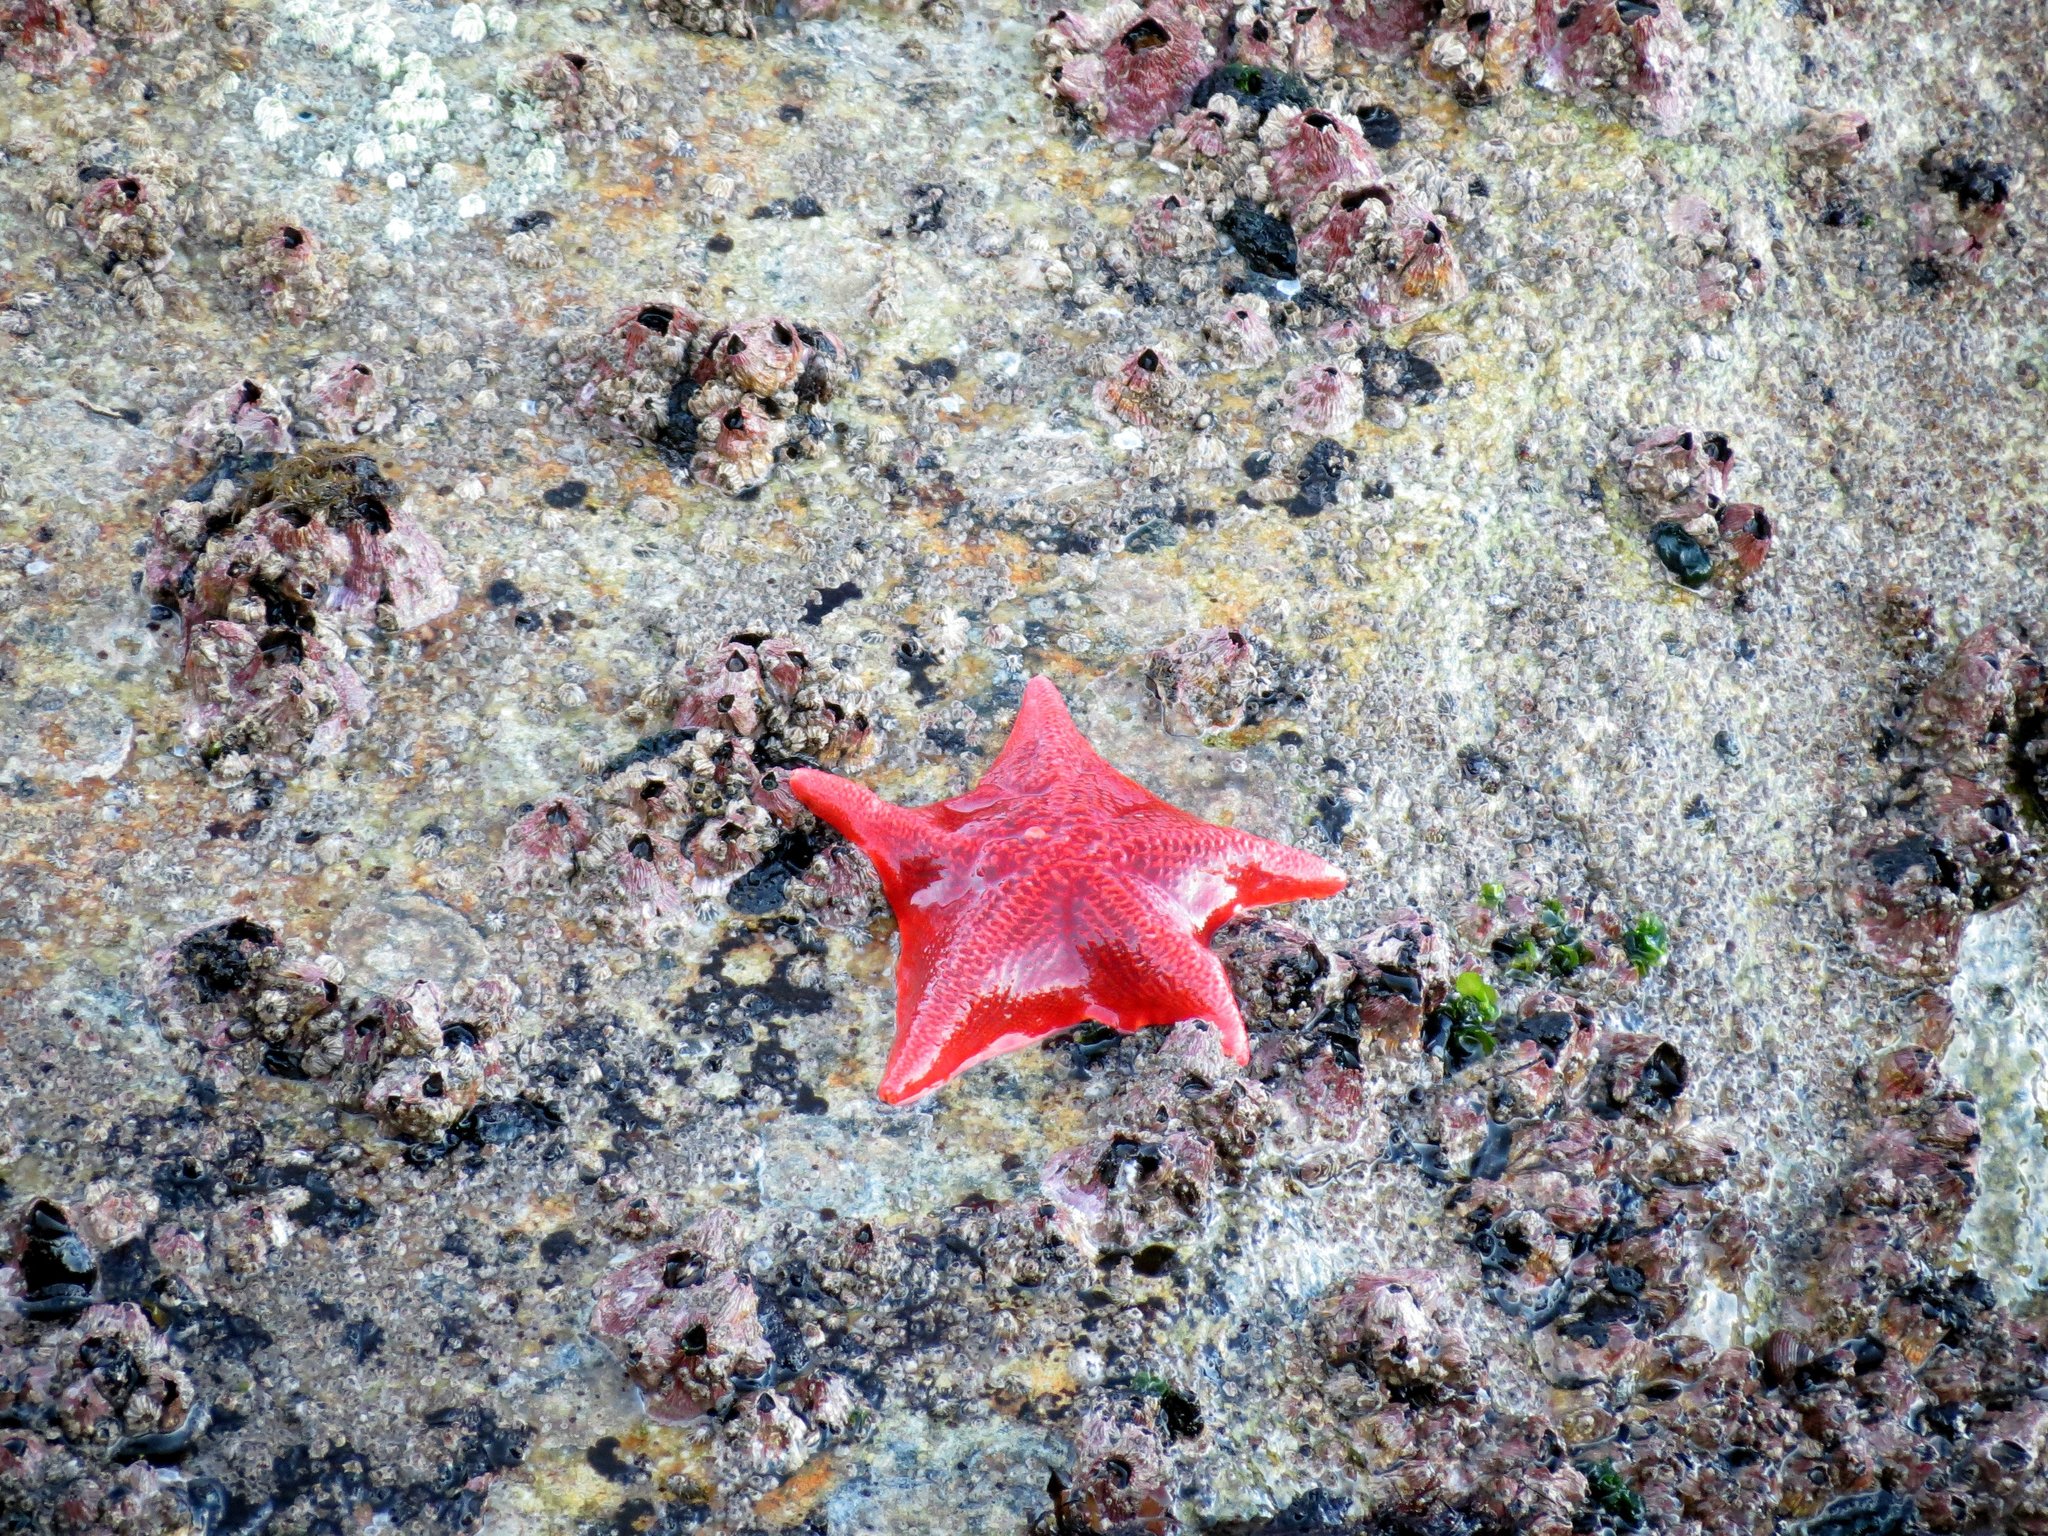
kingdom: Animalia
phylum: Echinodermata
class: Asteroidea
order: Valvatida
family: Asterinidae
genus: Patiria
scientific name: Patiria miniata
